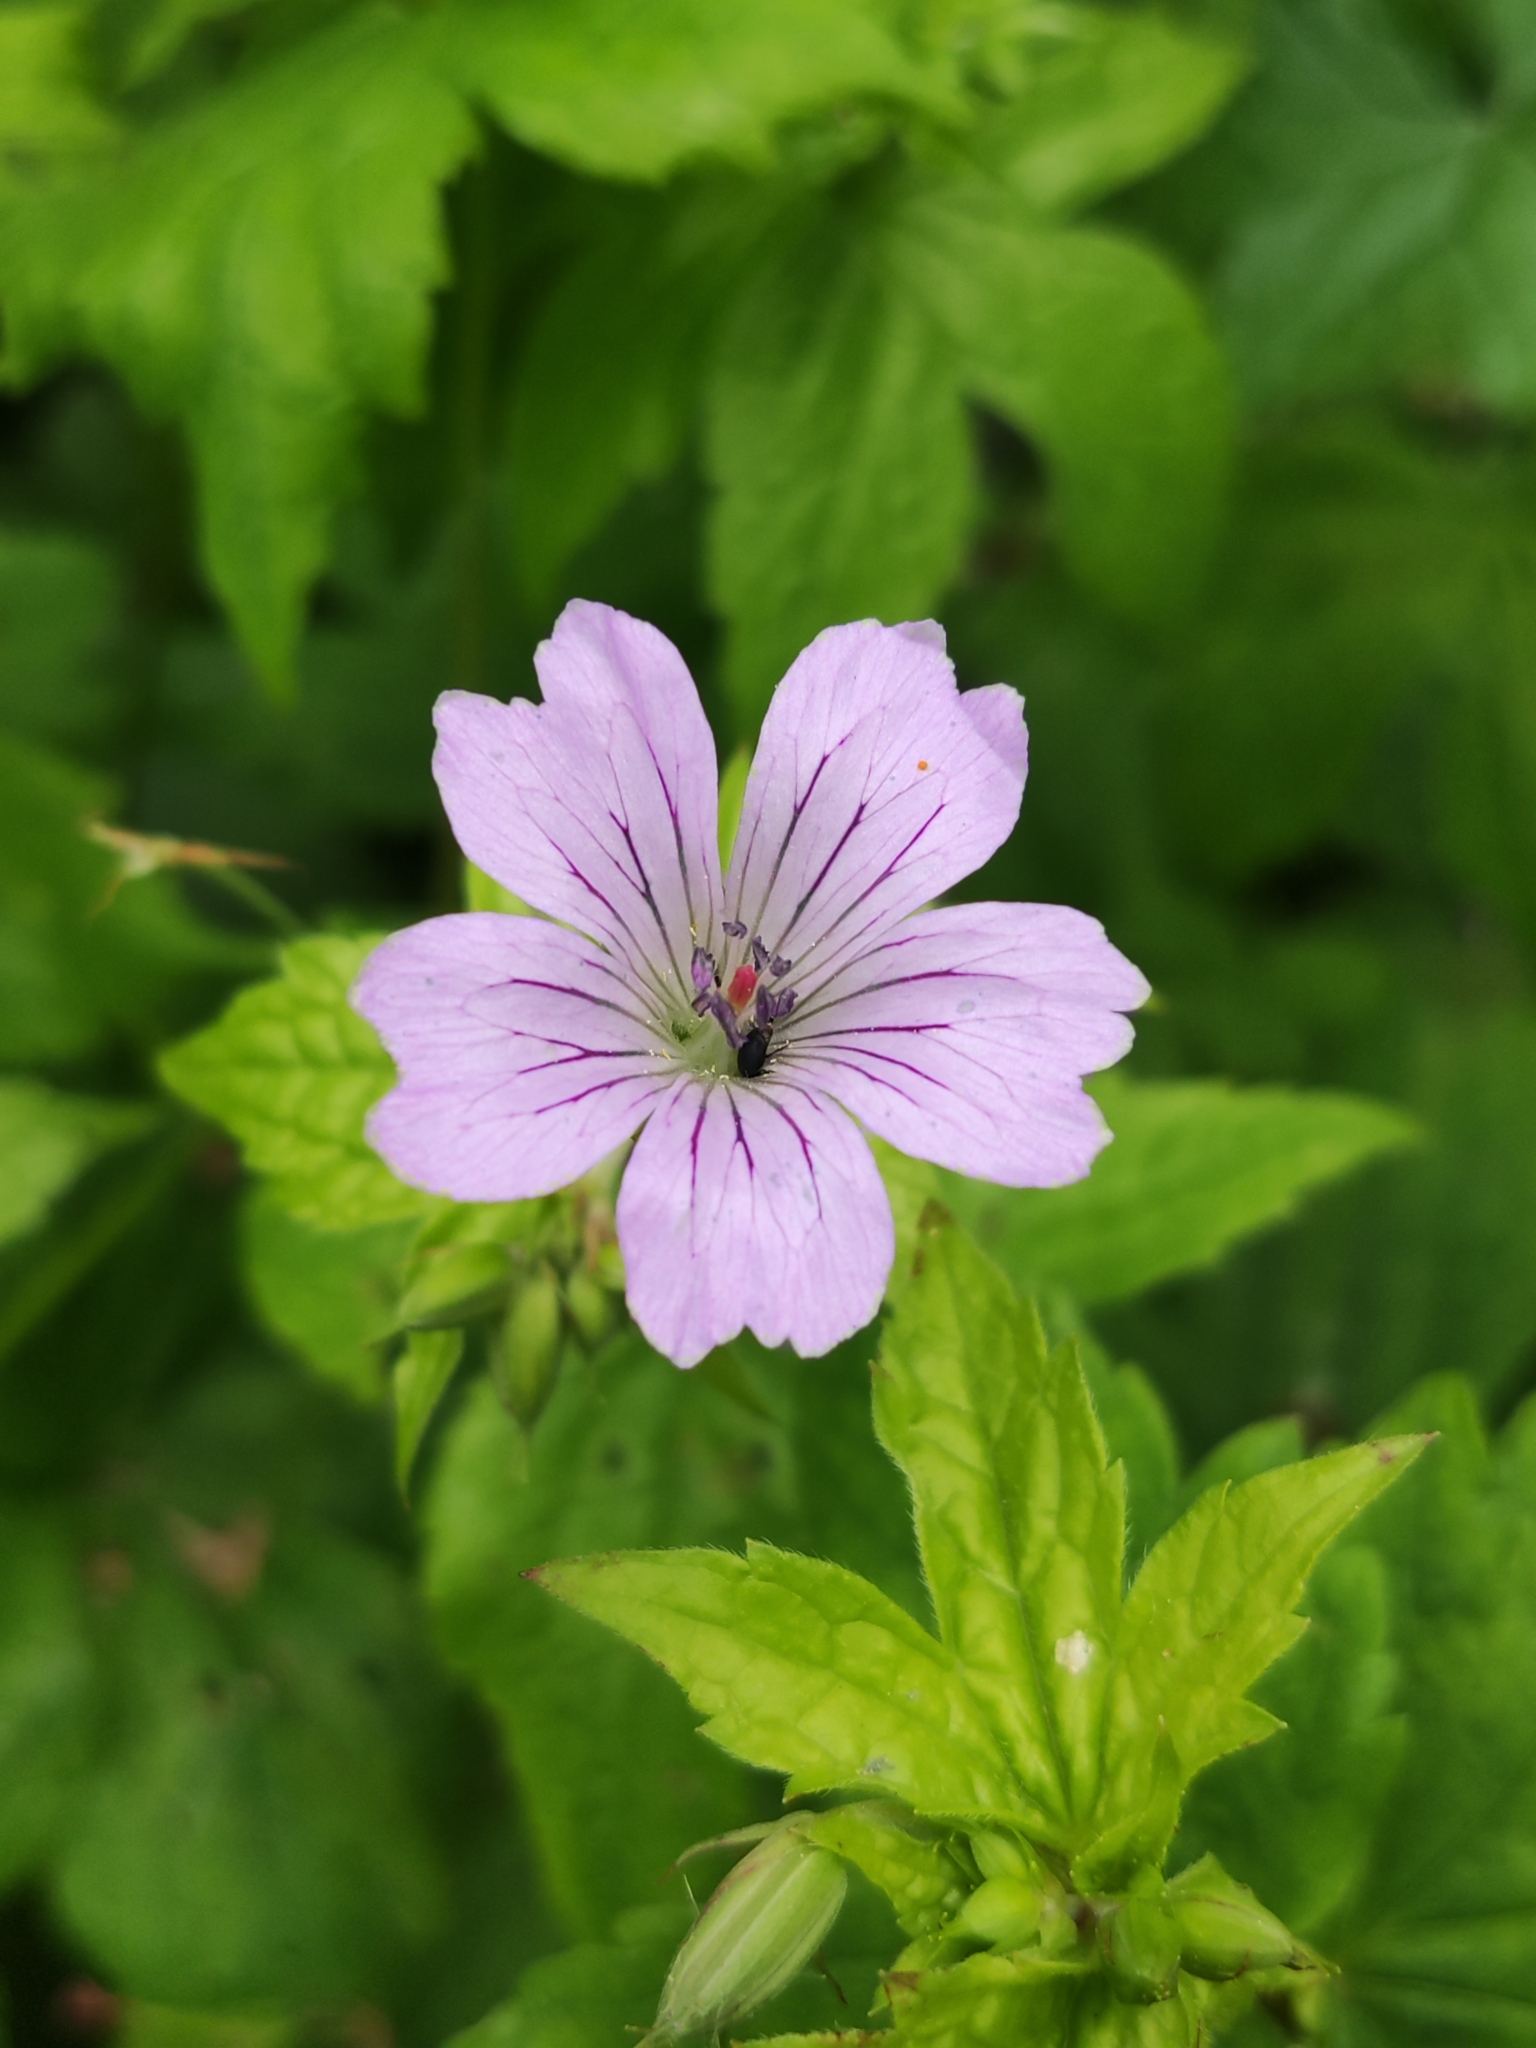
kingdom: Plantae
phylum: Tracheophyta
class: Magnoliopsida
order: Geraniales
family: Geraniaceae
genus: Geranium
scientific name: Geranium nodosum
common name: Knotted crane's-bill
